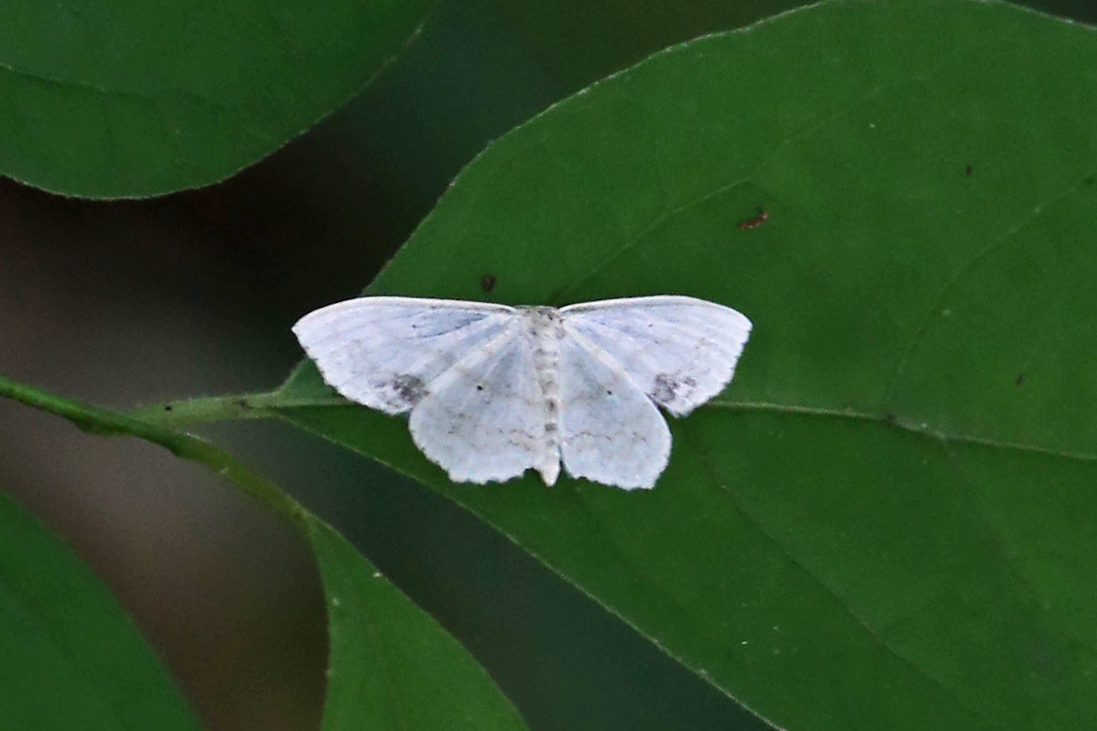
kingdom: Animalia
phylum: Arthropoda
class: Insecta
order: Lepidoptera
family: Geometridae
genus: Scopula
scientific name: Scopula limboundata
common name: Large lace border
